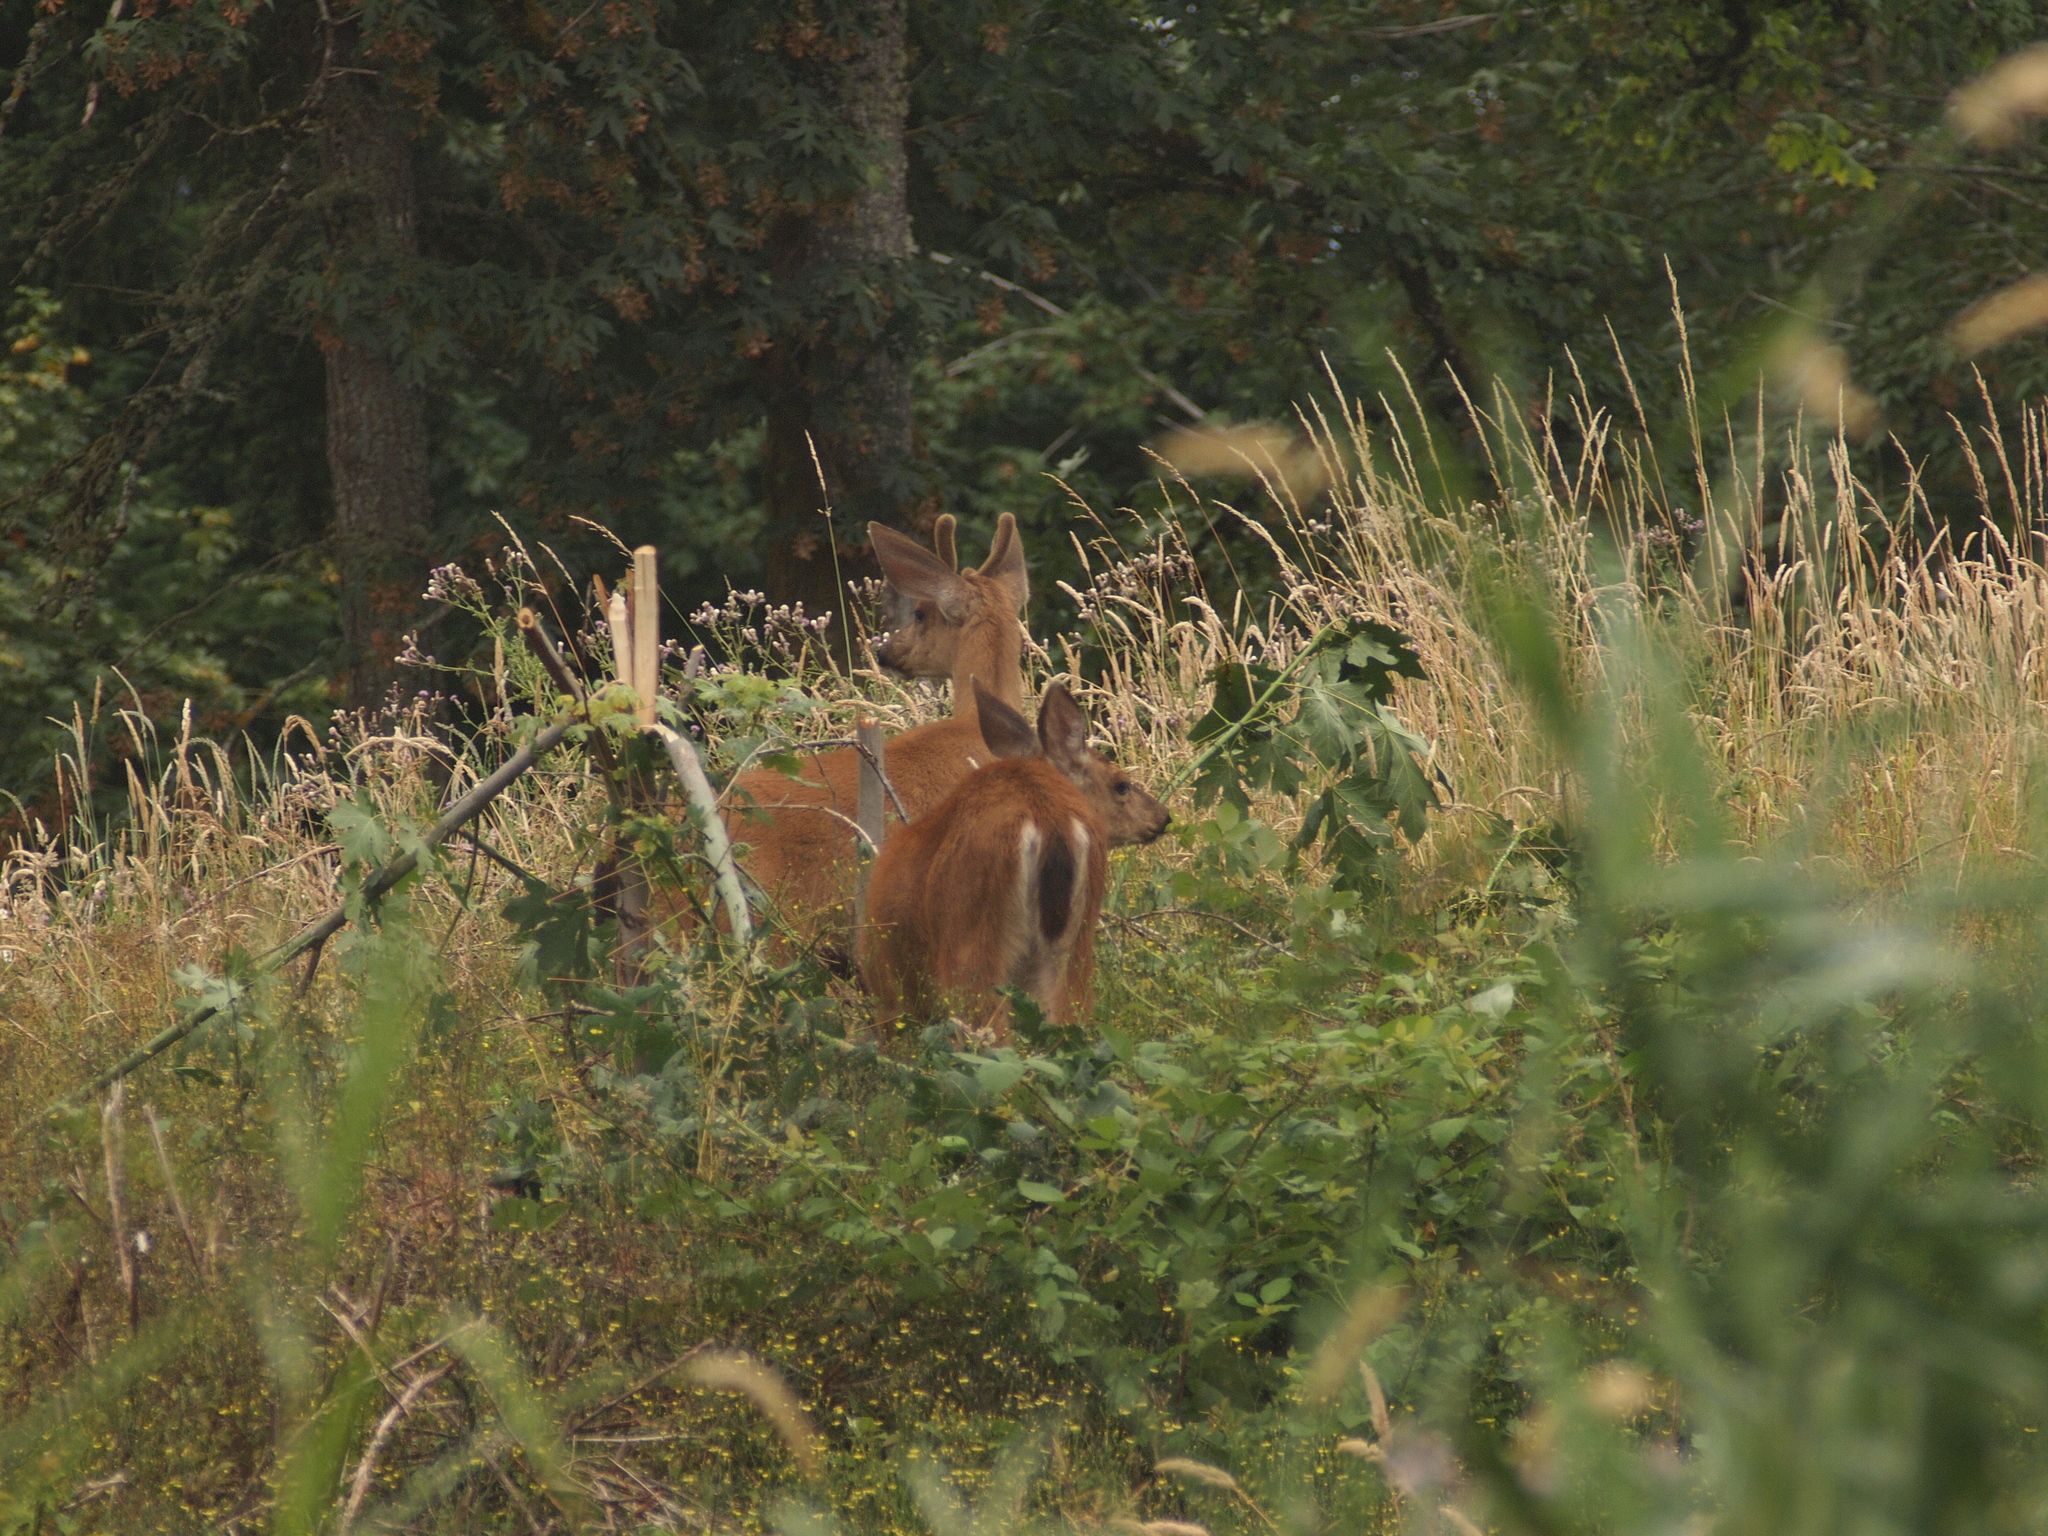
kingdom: Animalia
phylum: Chordata
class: Mammalia
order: Artiodactyla
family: Cervidae
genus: Odocoileus
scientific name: Odocoileus hemionus
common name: Mule deer
